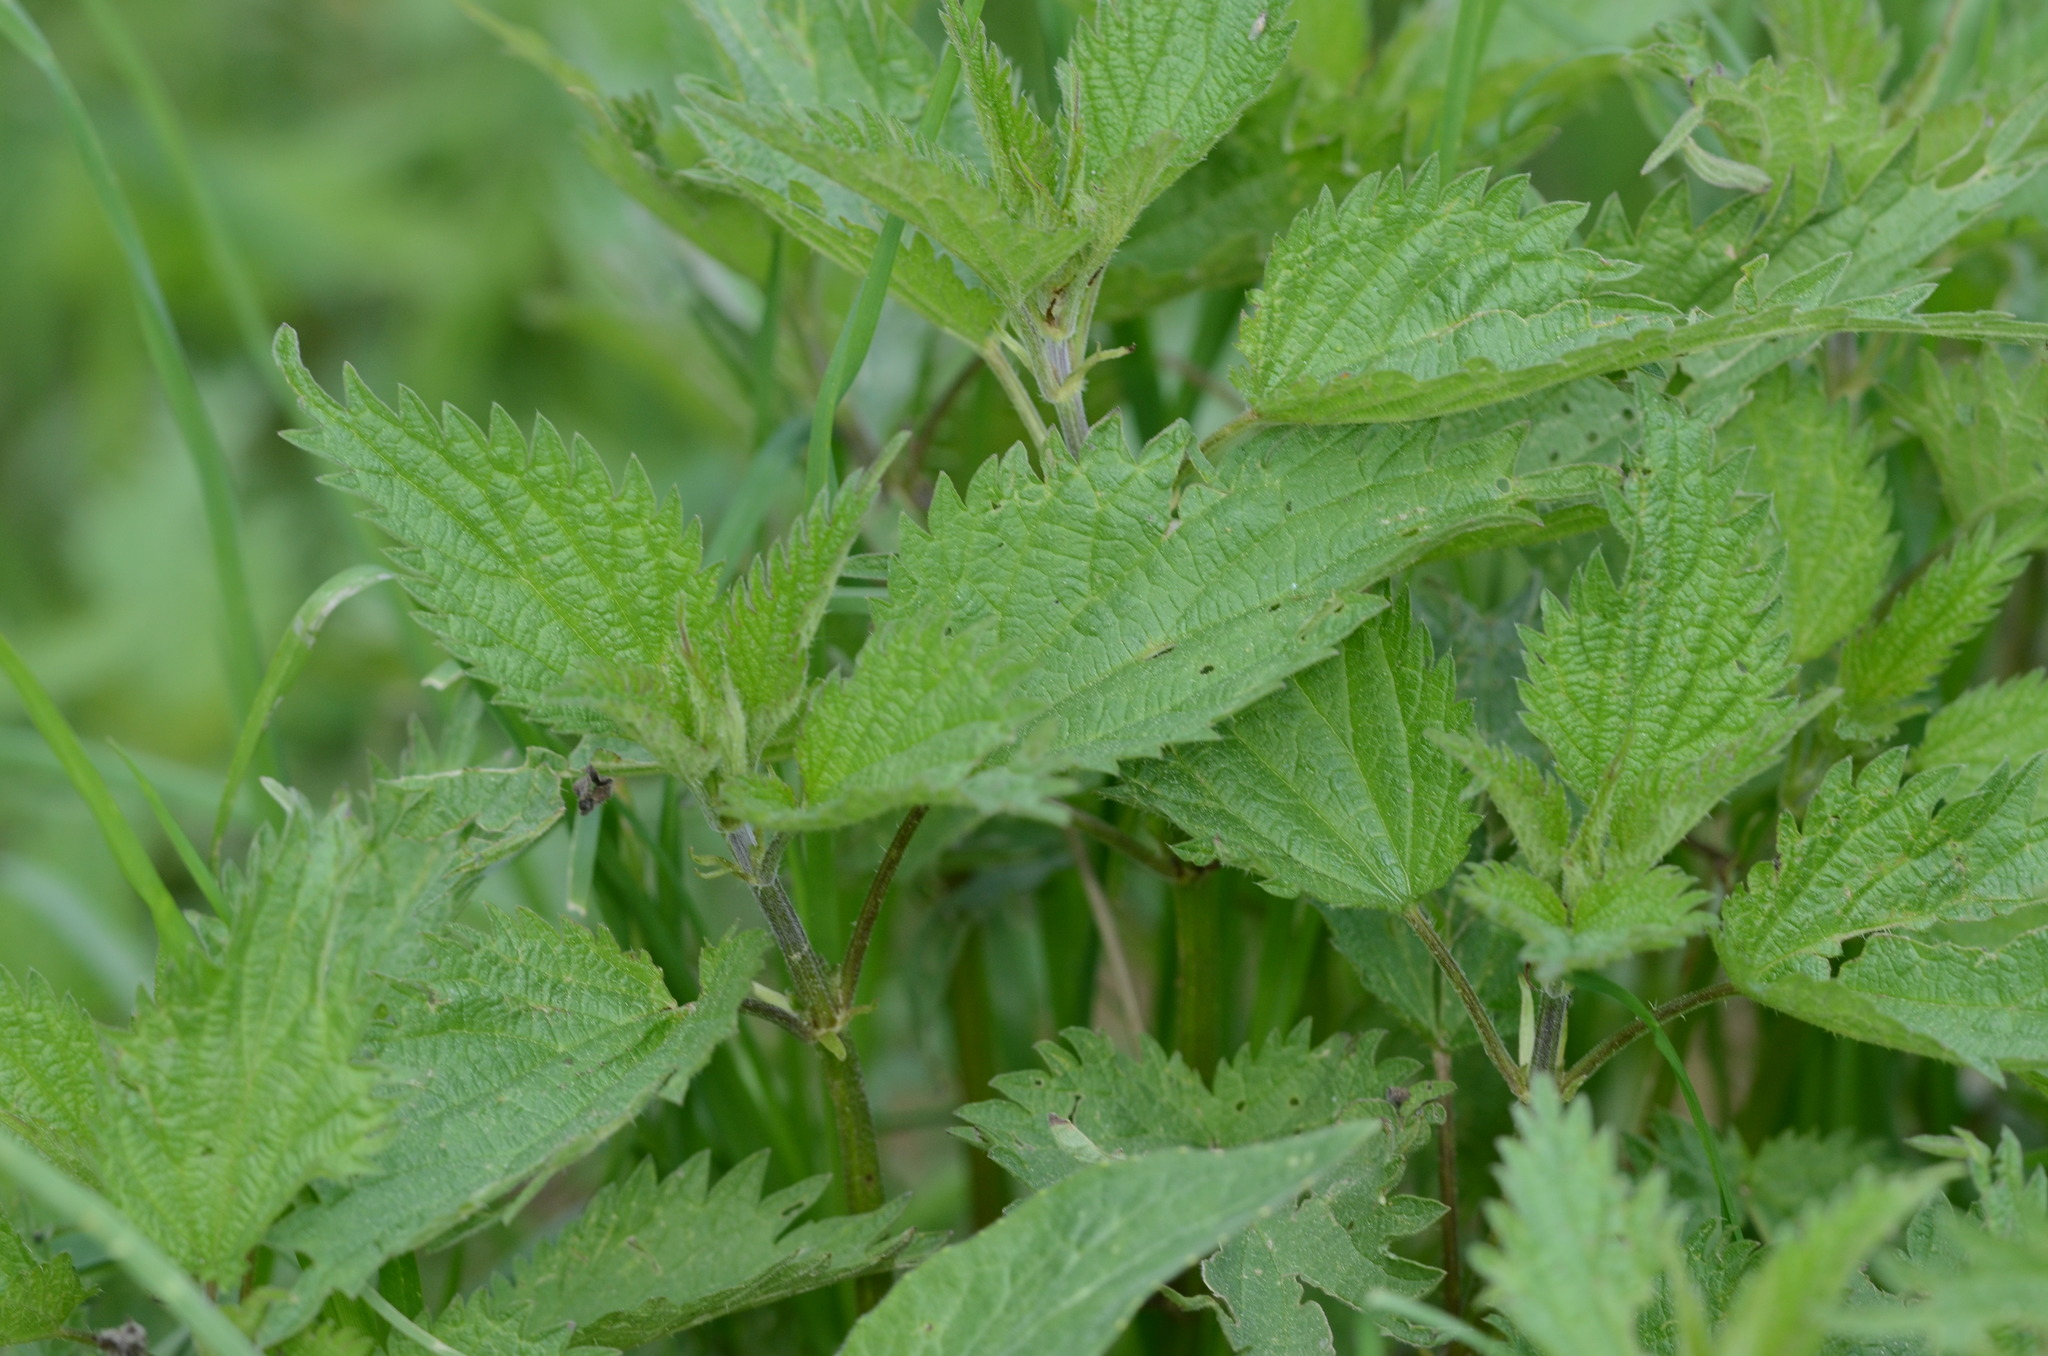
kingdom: Plantae
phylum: Tracheophyta
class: Magnoliopsida
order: Rosales
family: Urticaceae
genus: Urtica
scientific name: Urtica dioica
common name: Common nettle
